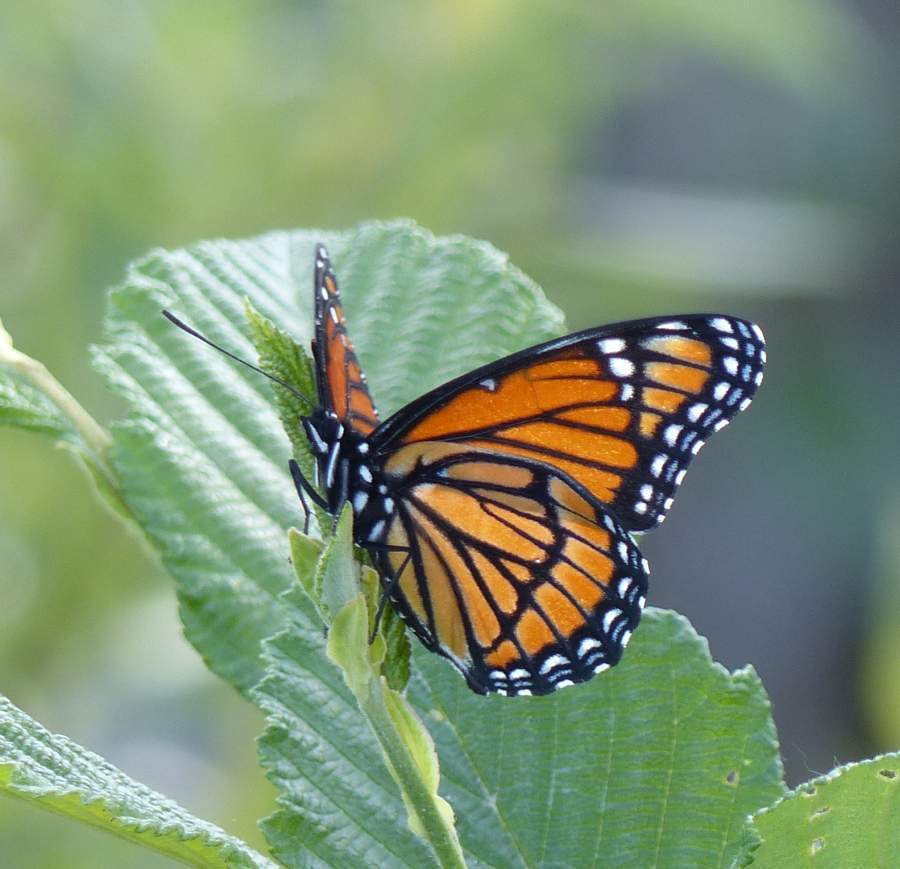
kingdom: Animalia
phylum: Arthropoda
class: Insecta
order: Lepidoptera
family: Nymphalidae
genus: Limenitis
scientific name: Limenitis archippus
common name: Viceroy
